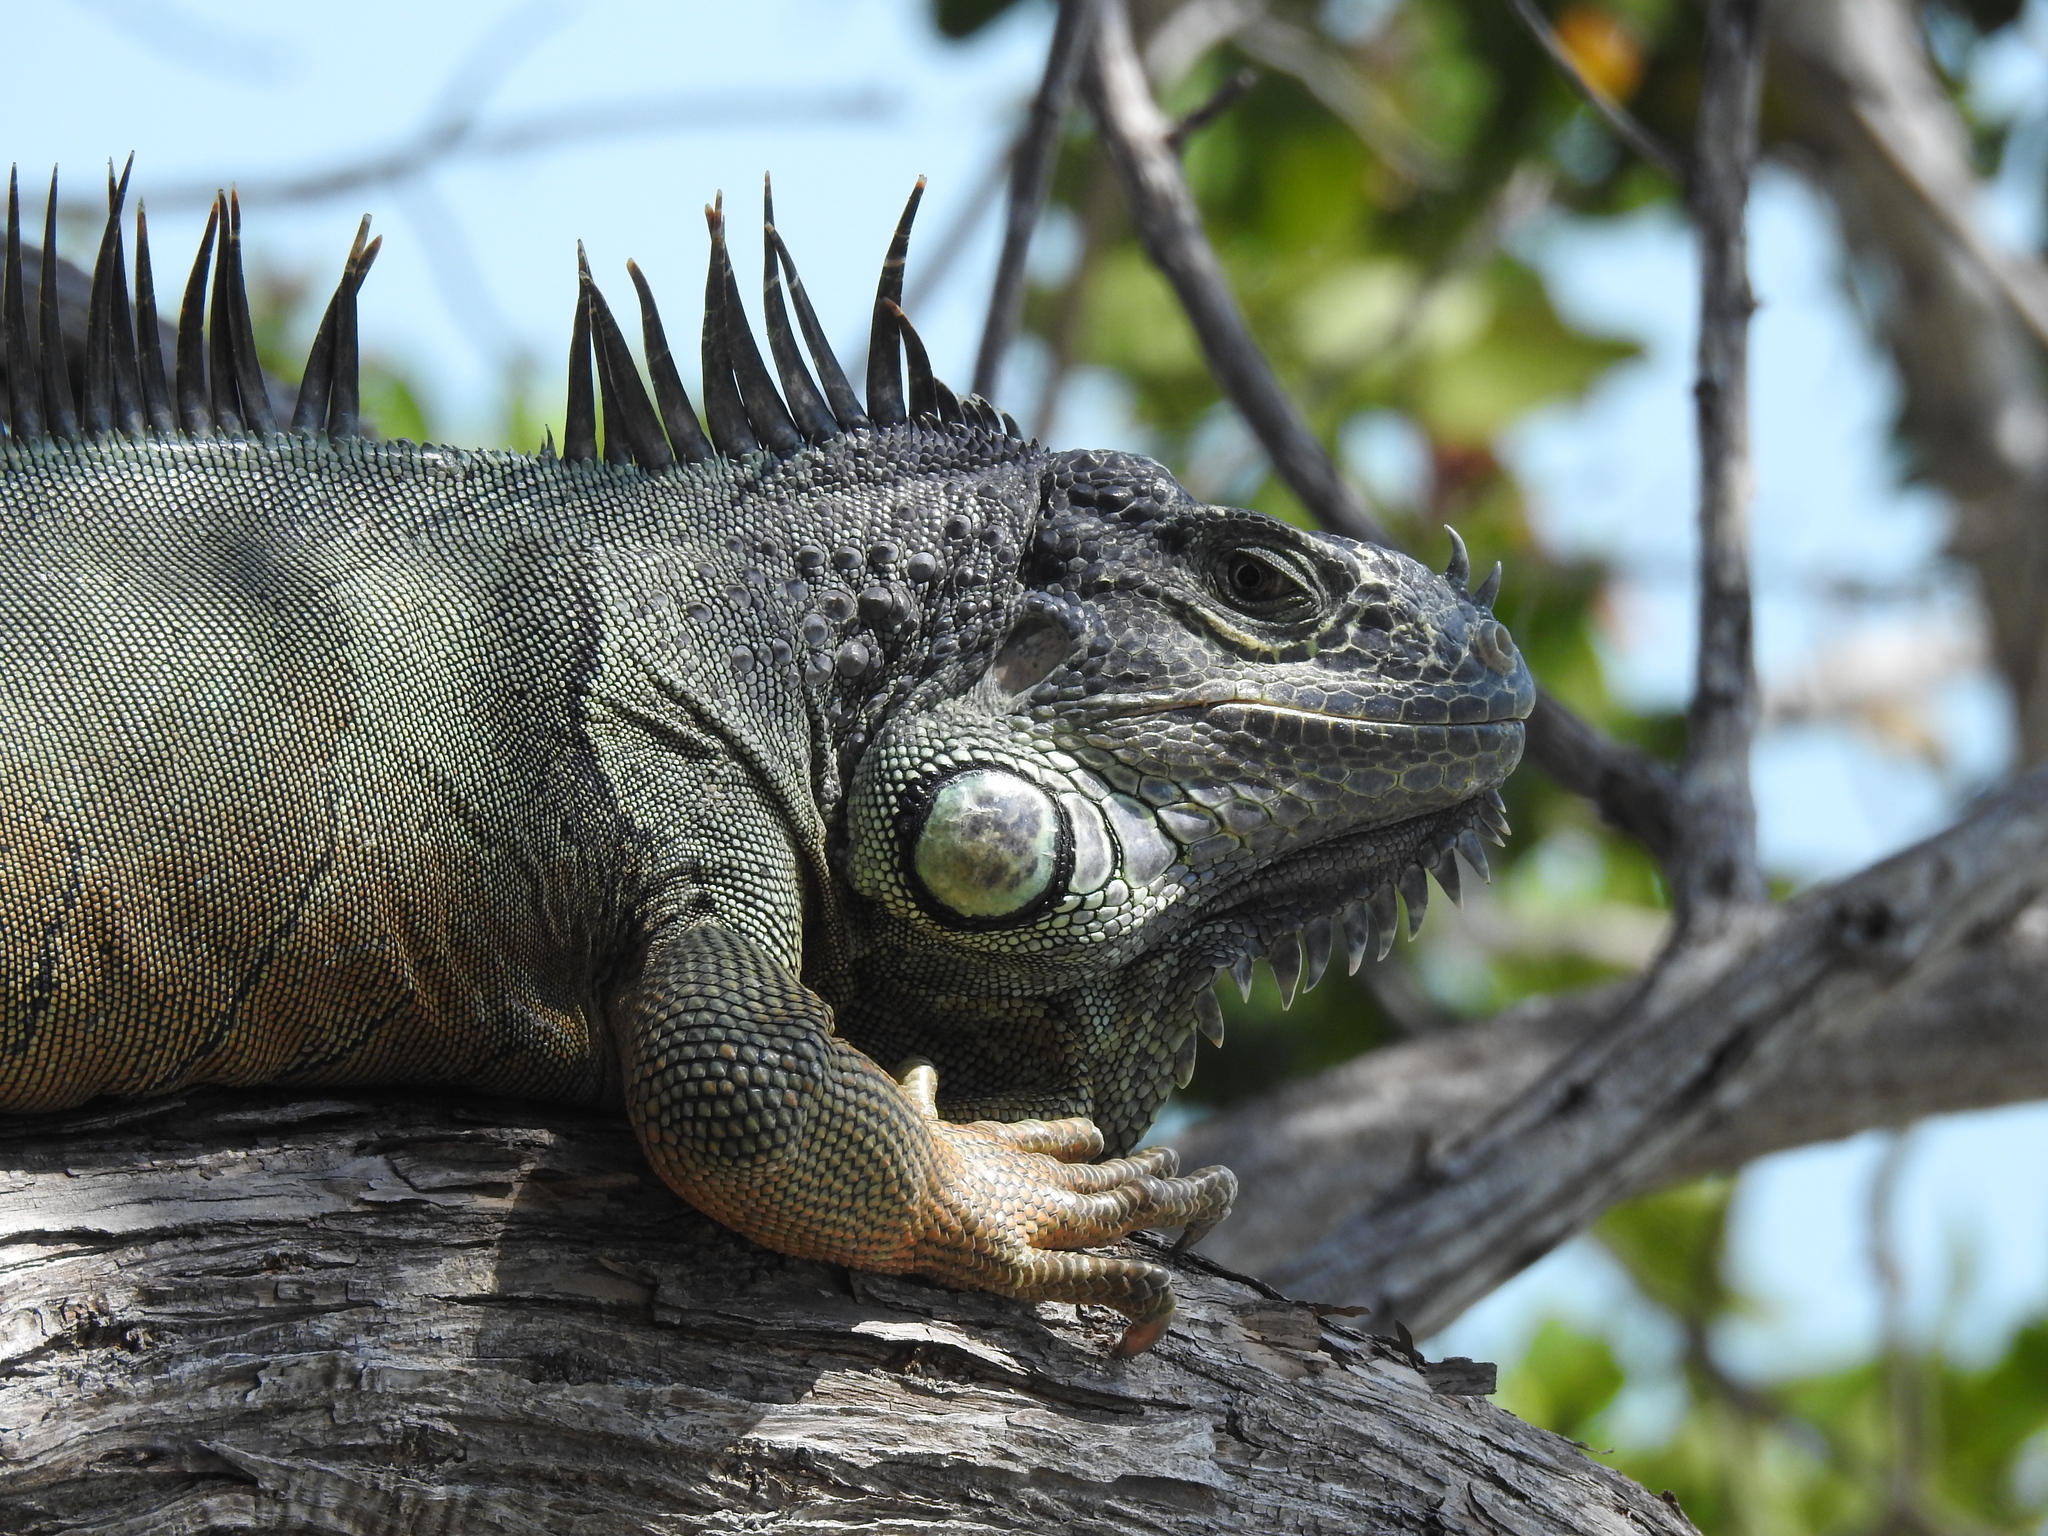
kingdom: Animalia
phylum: Chordata
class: Squamata
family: Iguanidae
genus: Iguana
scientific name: Iguana iguana
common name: Green iguana
